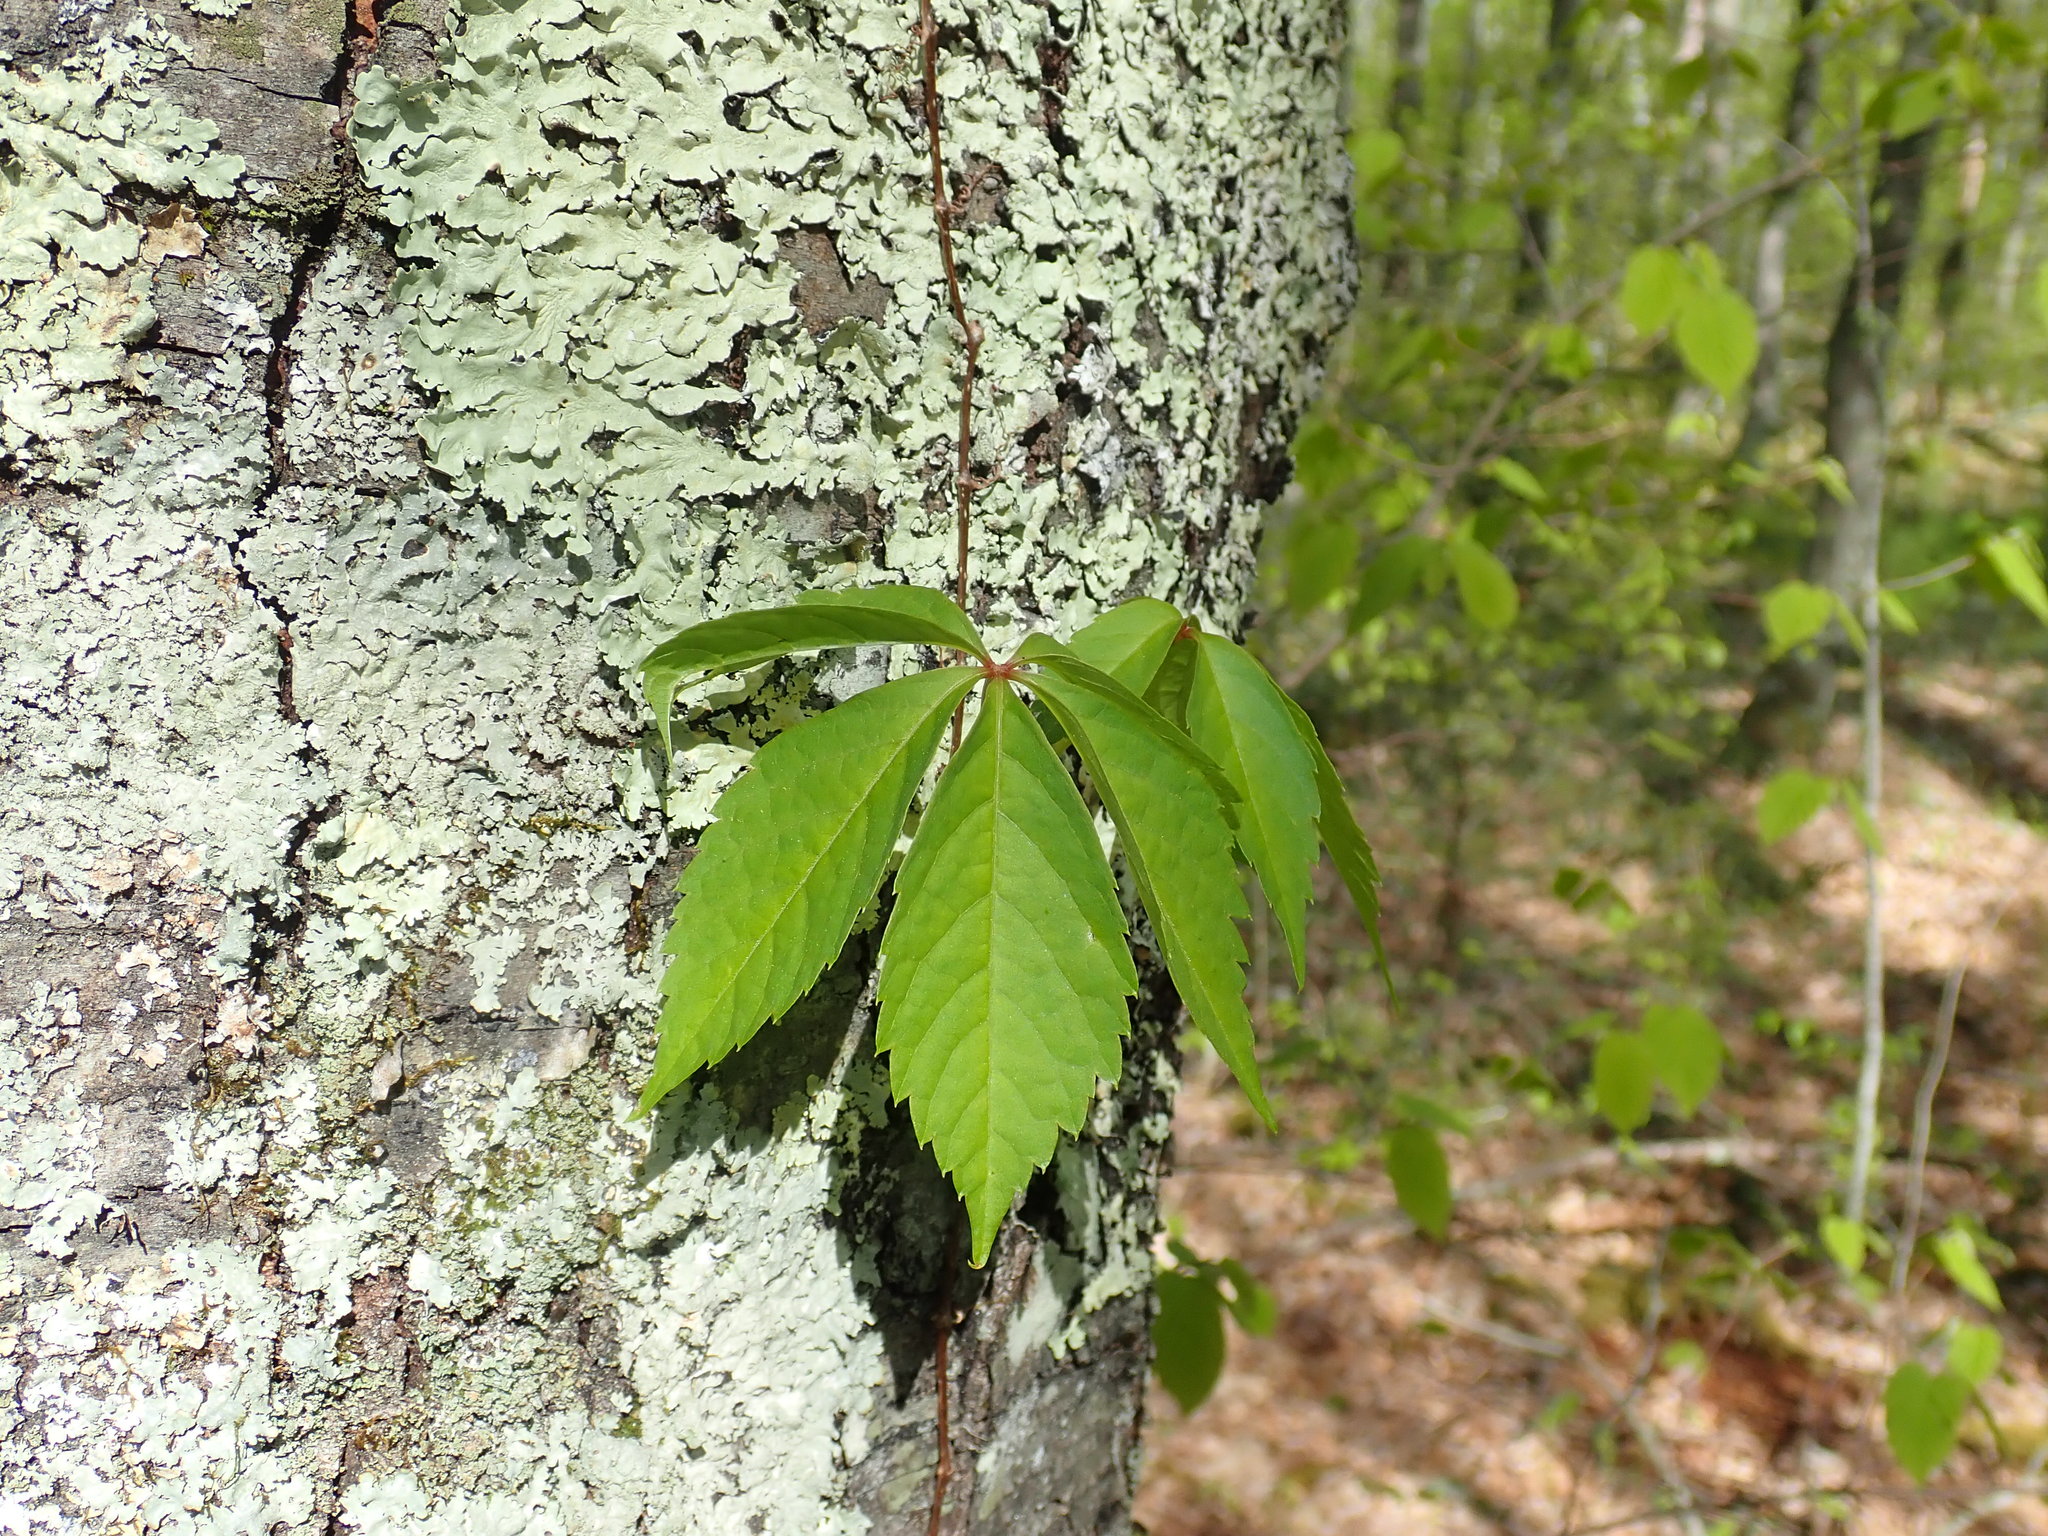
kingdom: Plantae
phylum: Tracheophyta
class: Magnoliopsida
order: Vitales
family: Vitaceae
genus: Parthenocissus
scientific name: Parthenocissus quinquefolia
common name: Virginia-creeper
